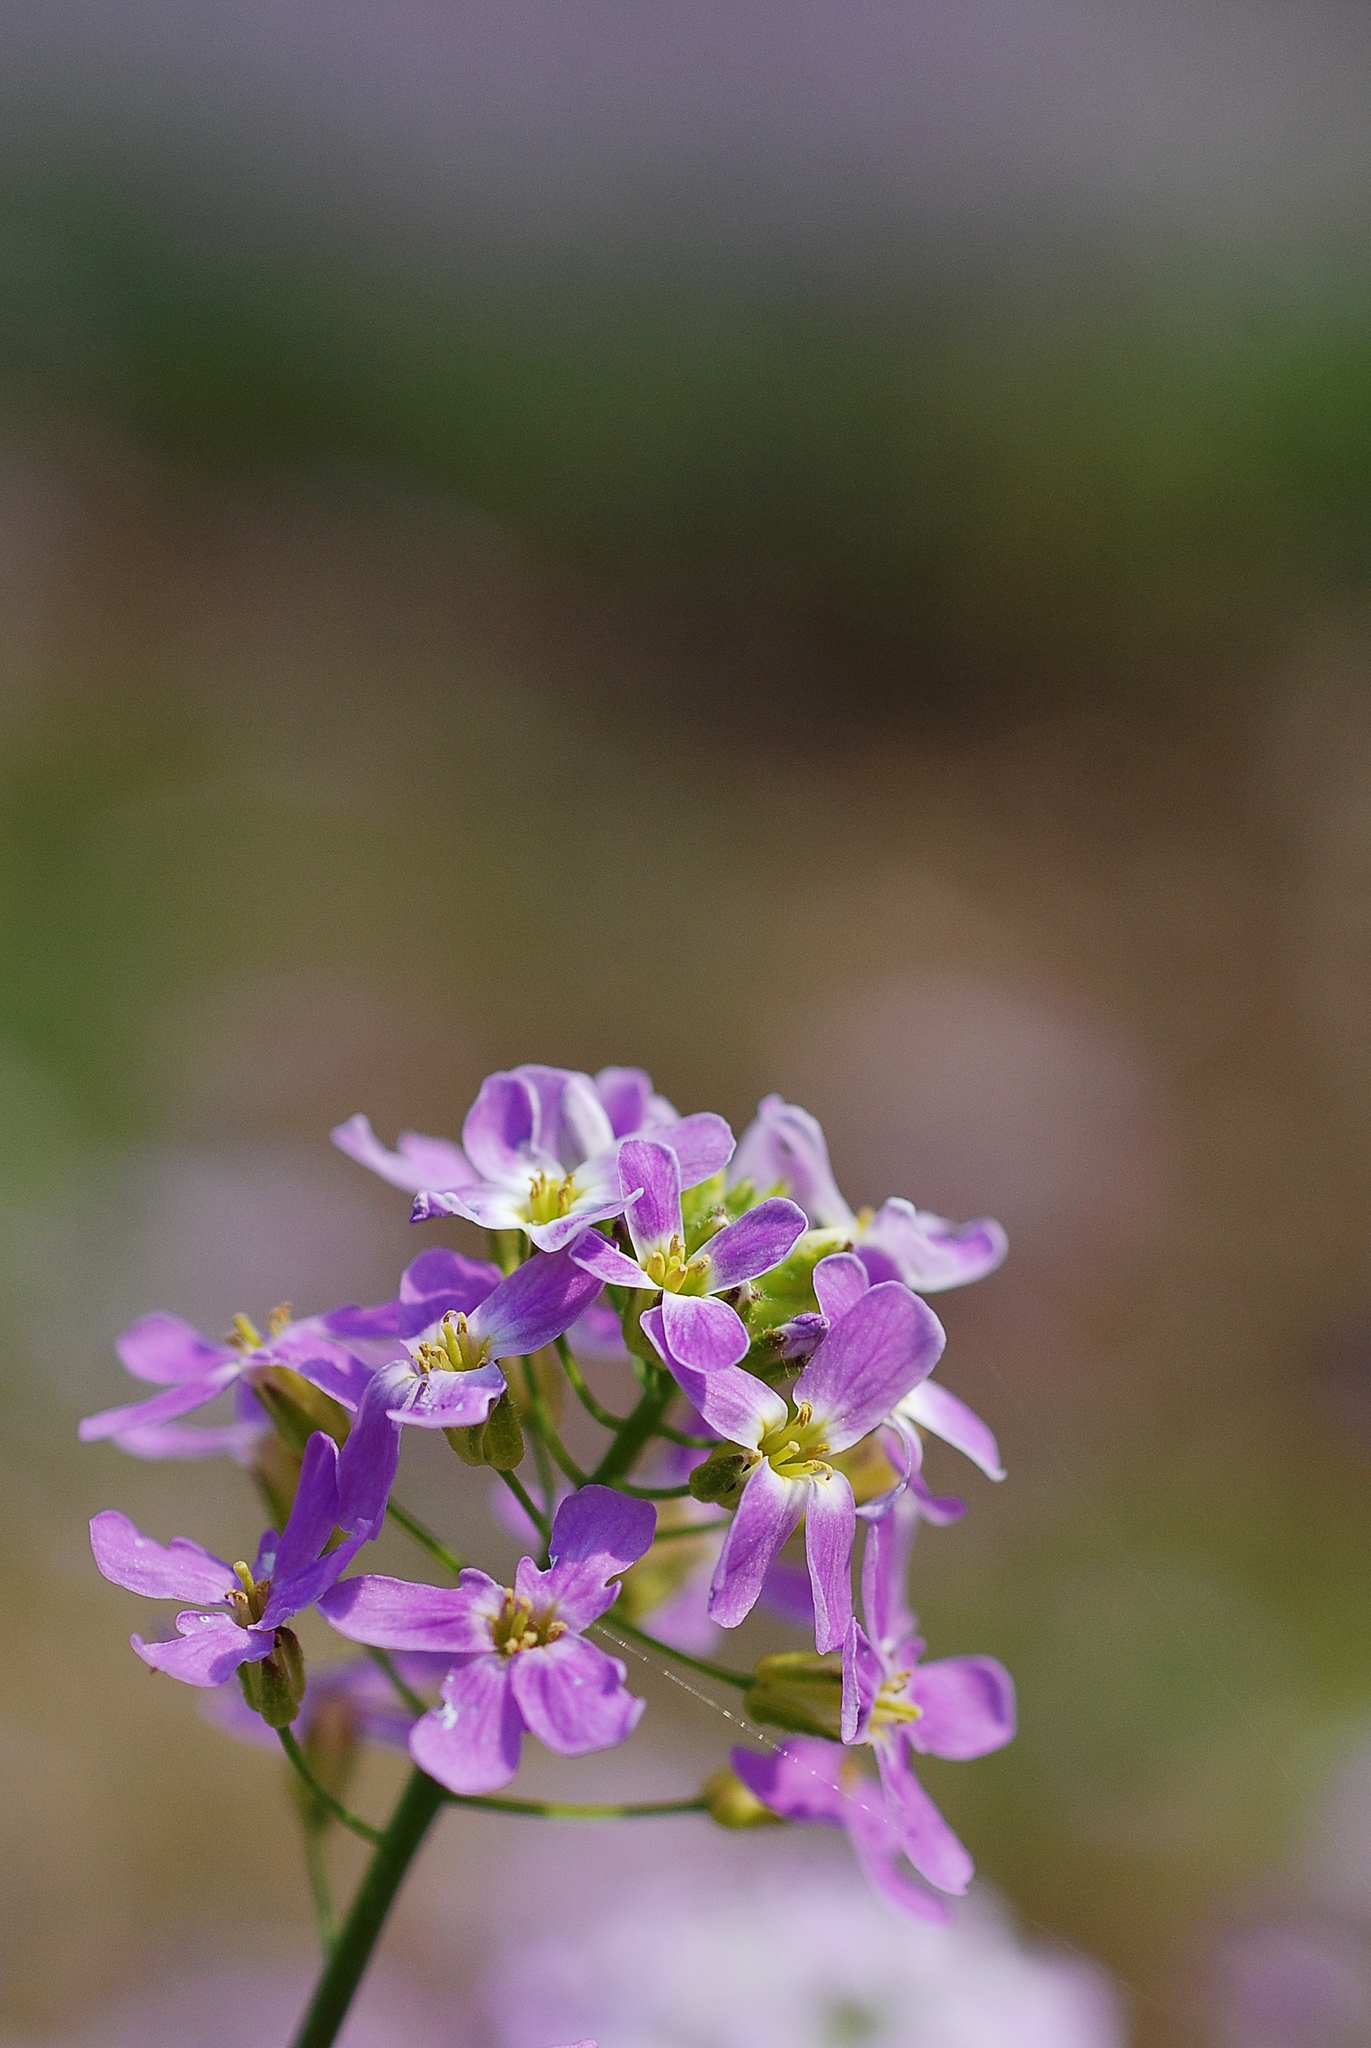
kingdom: Plantae
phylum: Tracheophyta
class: Magnoliopsida
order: Brassicales
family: Brassicaceae
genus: Arabidopsis
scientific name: Arabidopsis arenosa
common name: Sand rock-cress
